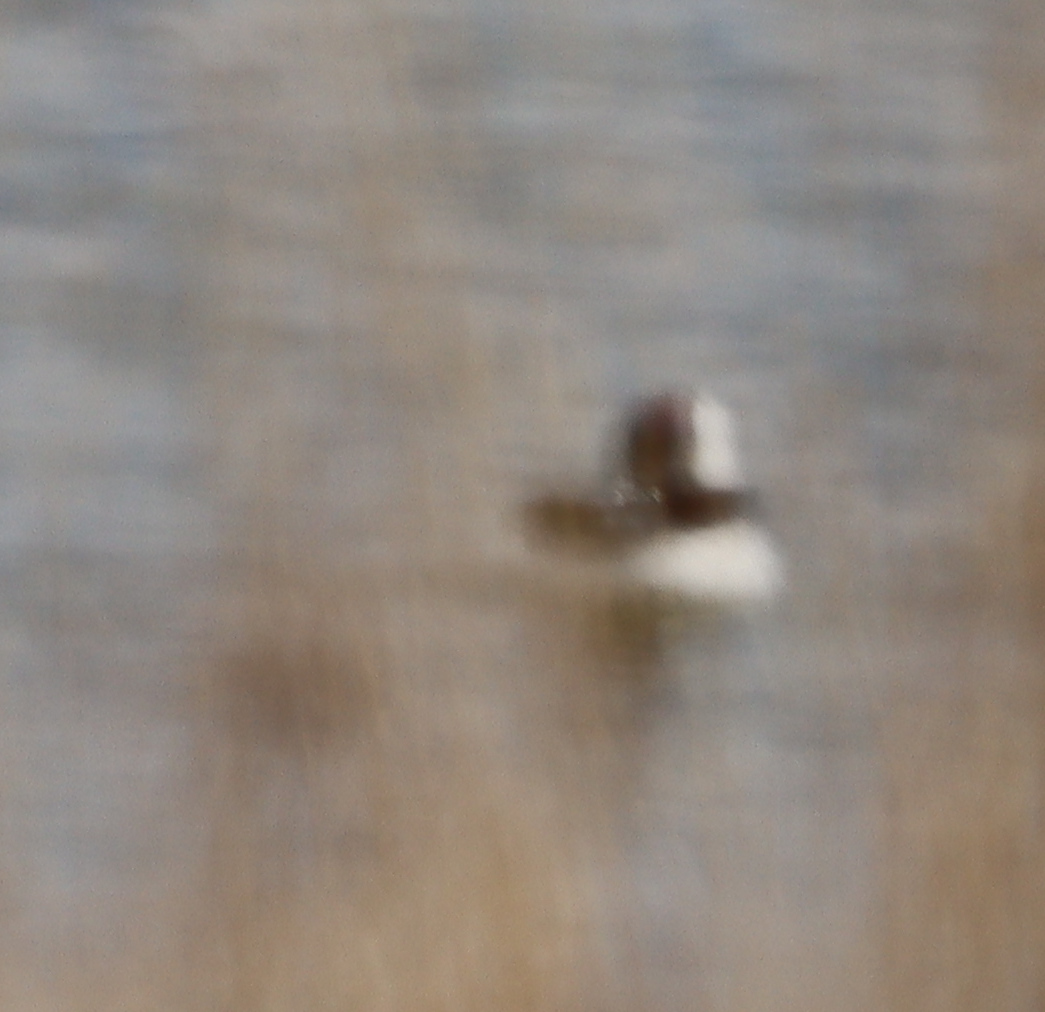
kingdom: Animalia
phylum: Chordata
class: Aves
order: Anseriformes
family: Anatidae
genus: Bucephala
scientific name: Bucephala albeola
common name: Bufflehead
